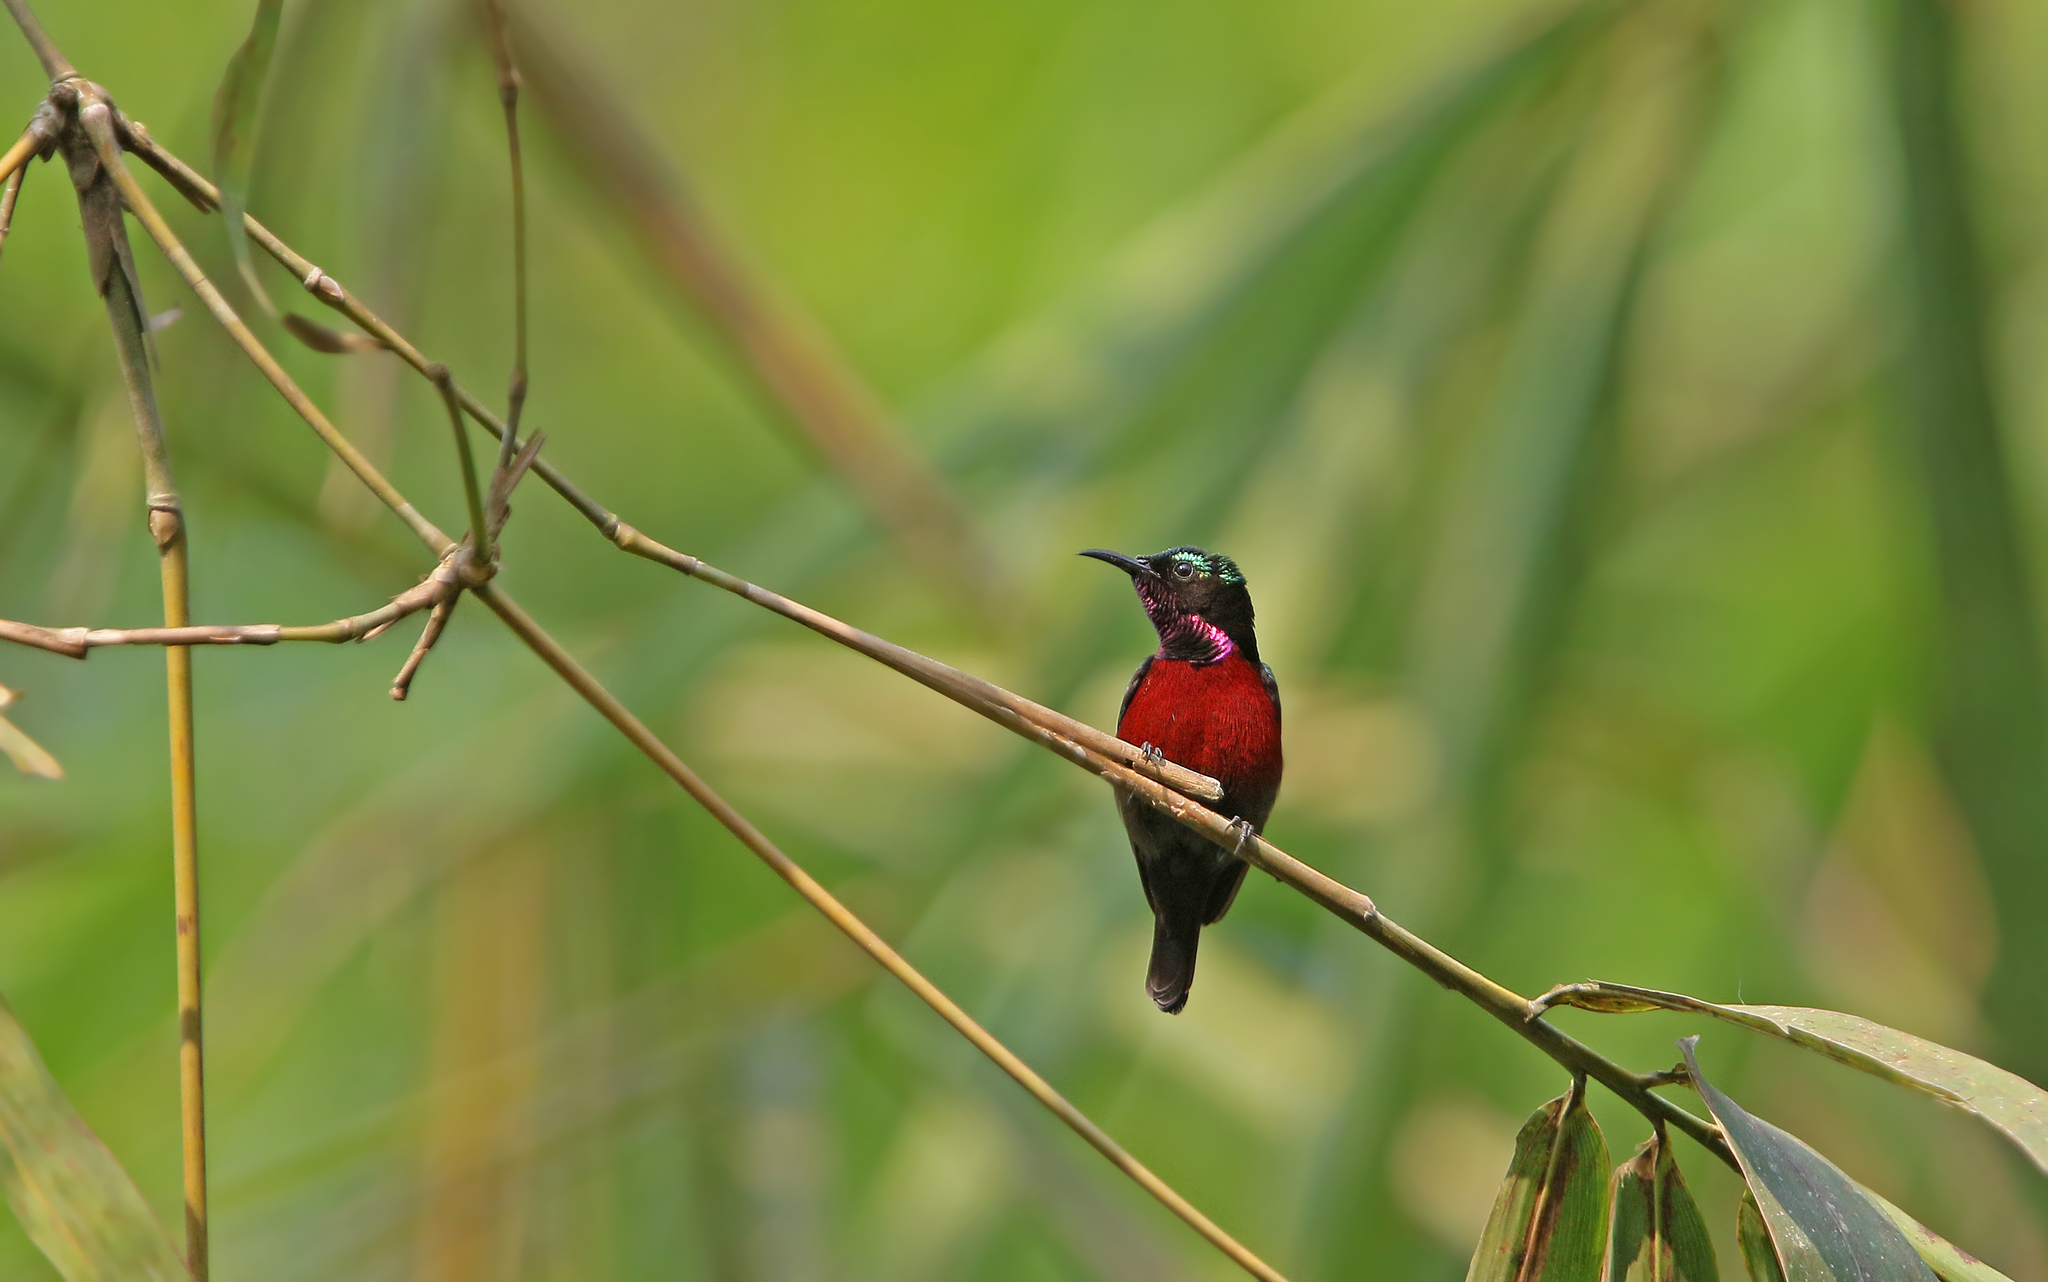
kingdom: Animalia
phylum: Chordata
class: Aves
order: Passeriformes
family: Nectariniidae
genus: Leptocoma
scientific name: Leptocoma brasiliana
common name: Van hasselt's sunbird
